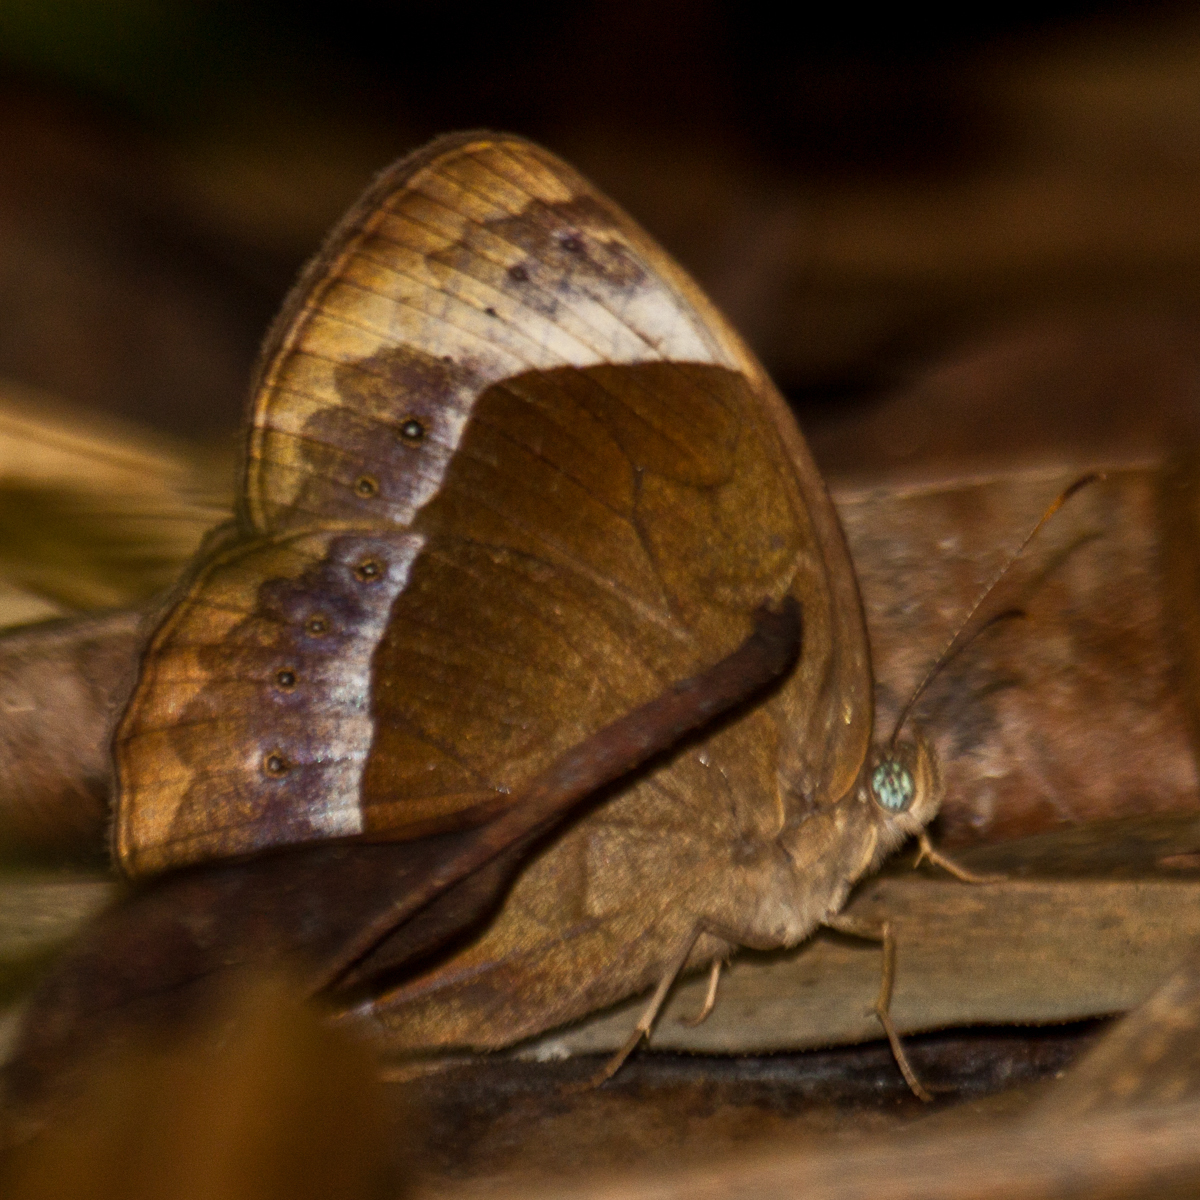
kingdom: Animalia
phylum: Arthropoda
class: Insecta
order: Lepidoptera
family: Nymphalidae
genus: Mycalesis
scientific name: Mycalesis anaxioides
